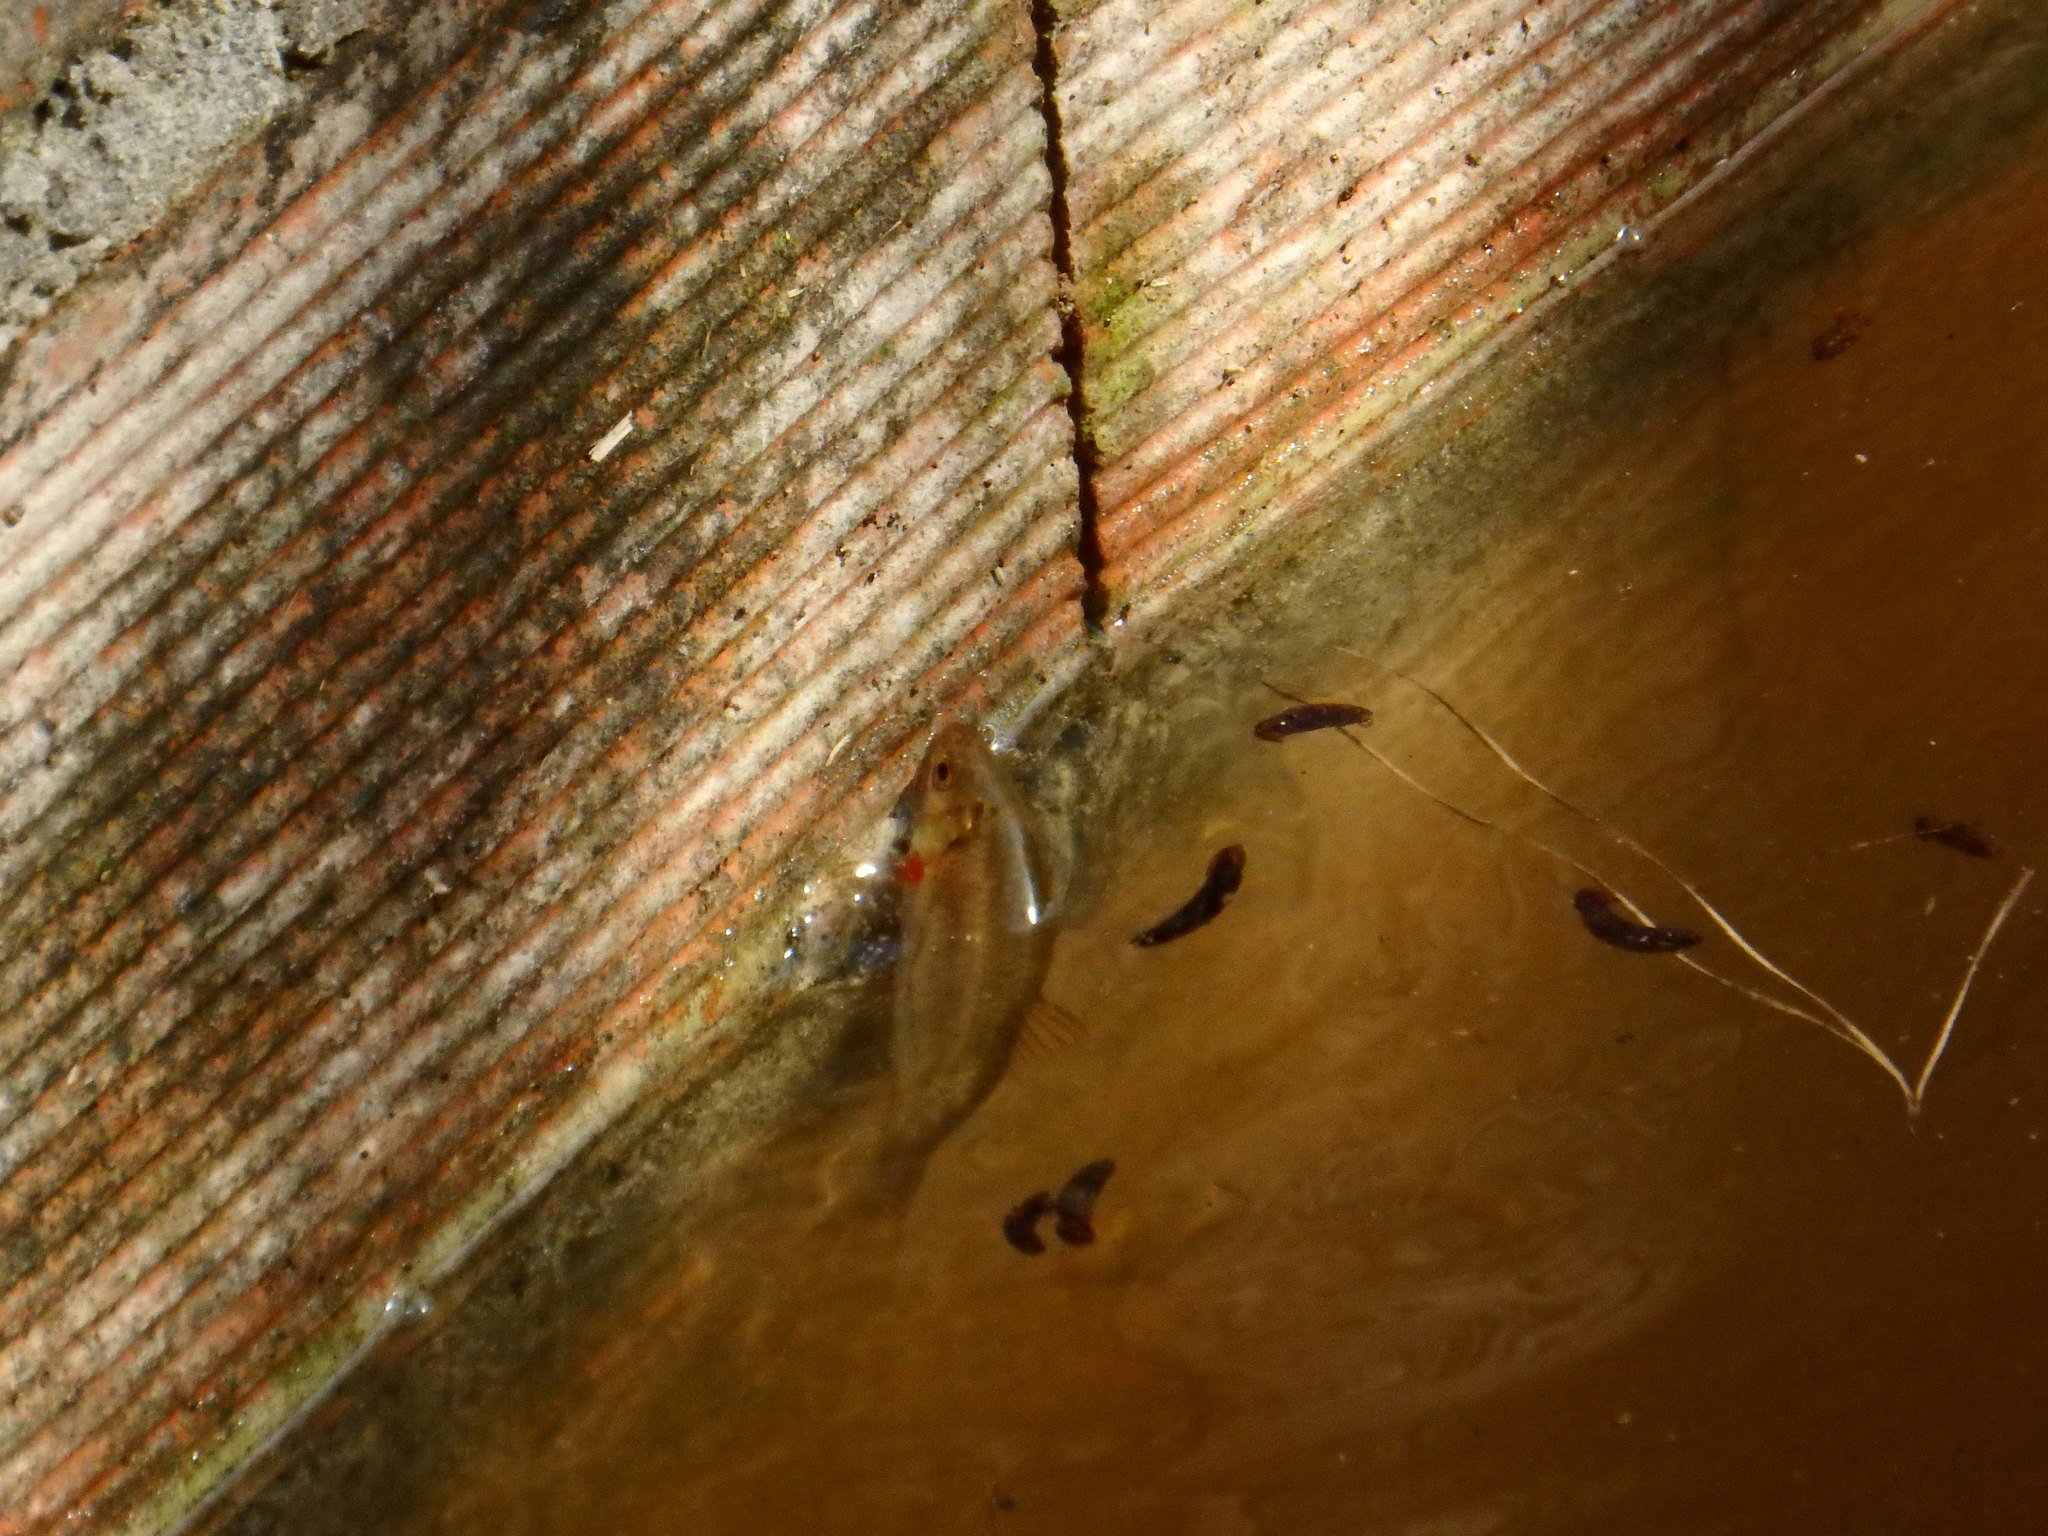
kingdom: Animalia
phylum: Chordata
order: Cypriniformes
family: Cyprinidae
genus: Achondrostoma
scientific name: Achondrostoma oligolepis
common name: Ruivaco
